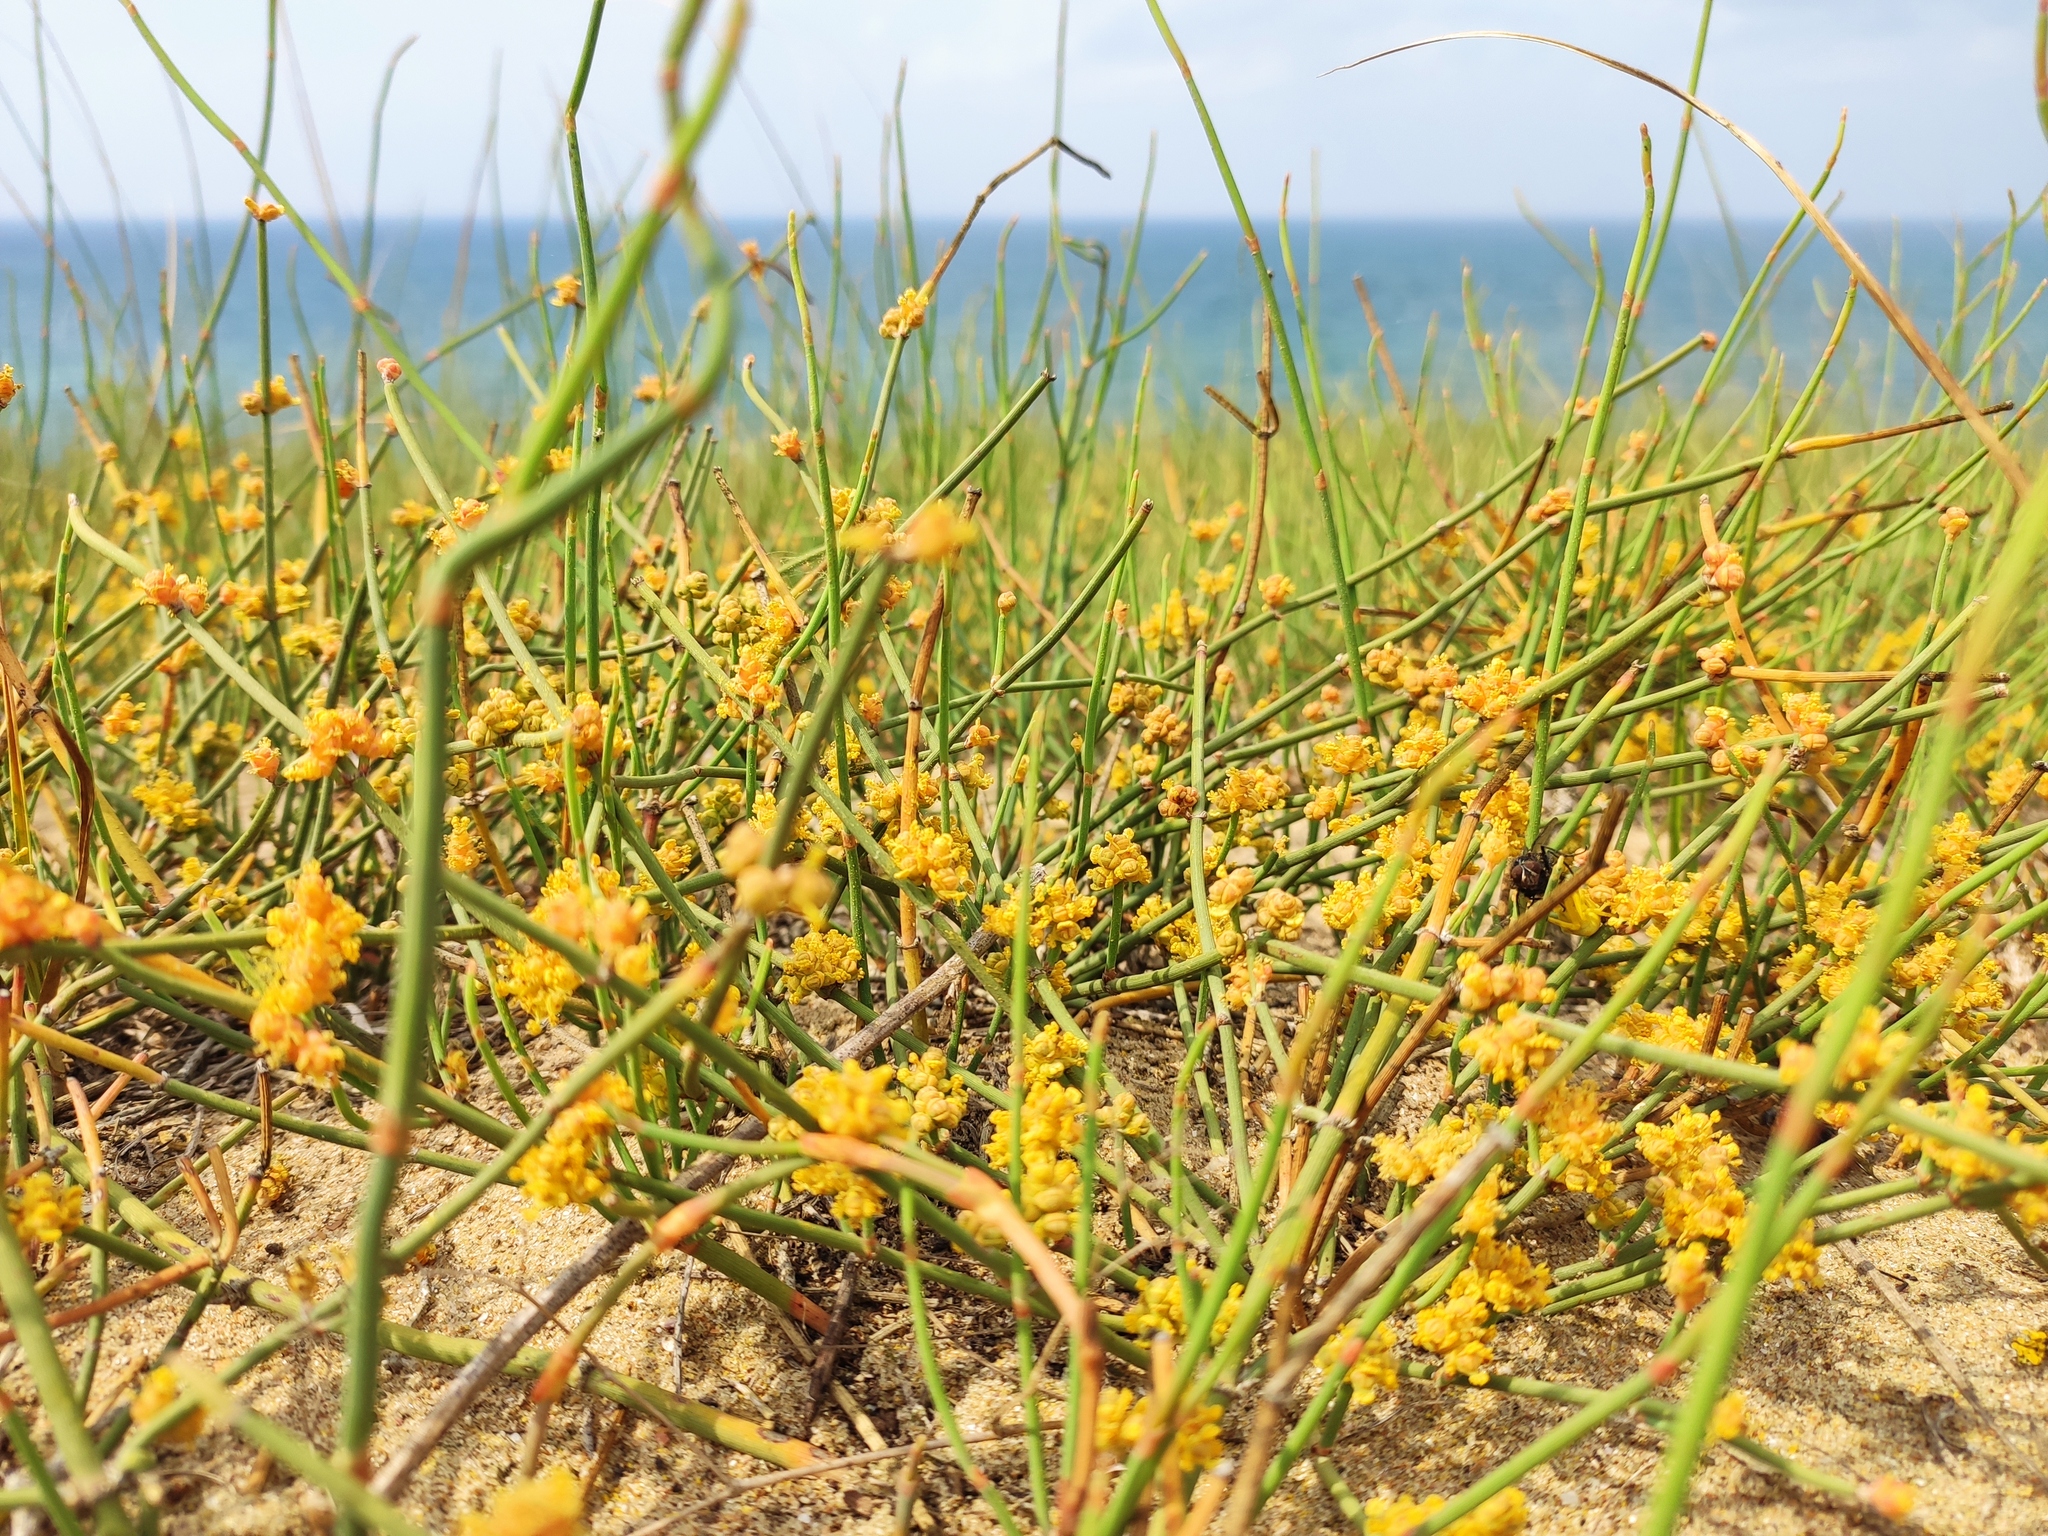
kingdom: Plantae
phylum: Tracheophyta
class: Gnetopsida
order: Ephedrales
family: Ephedraceae
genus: Ephedra
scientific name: Ephedra distachya
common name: Sea grape
